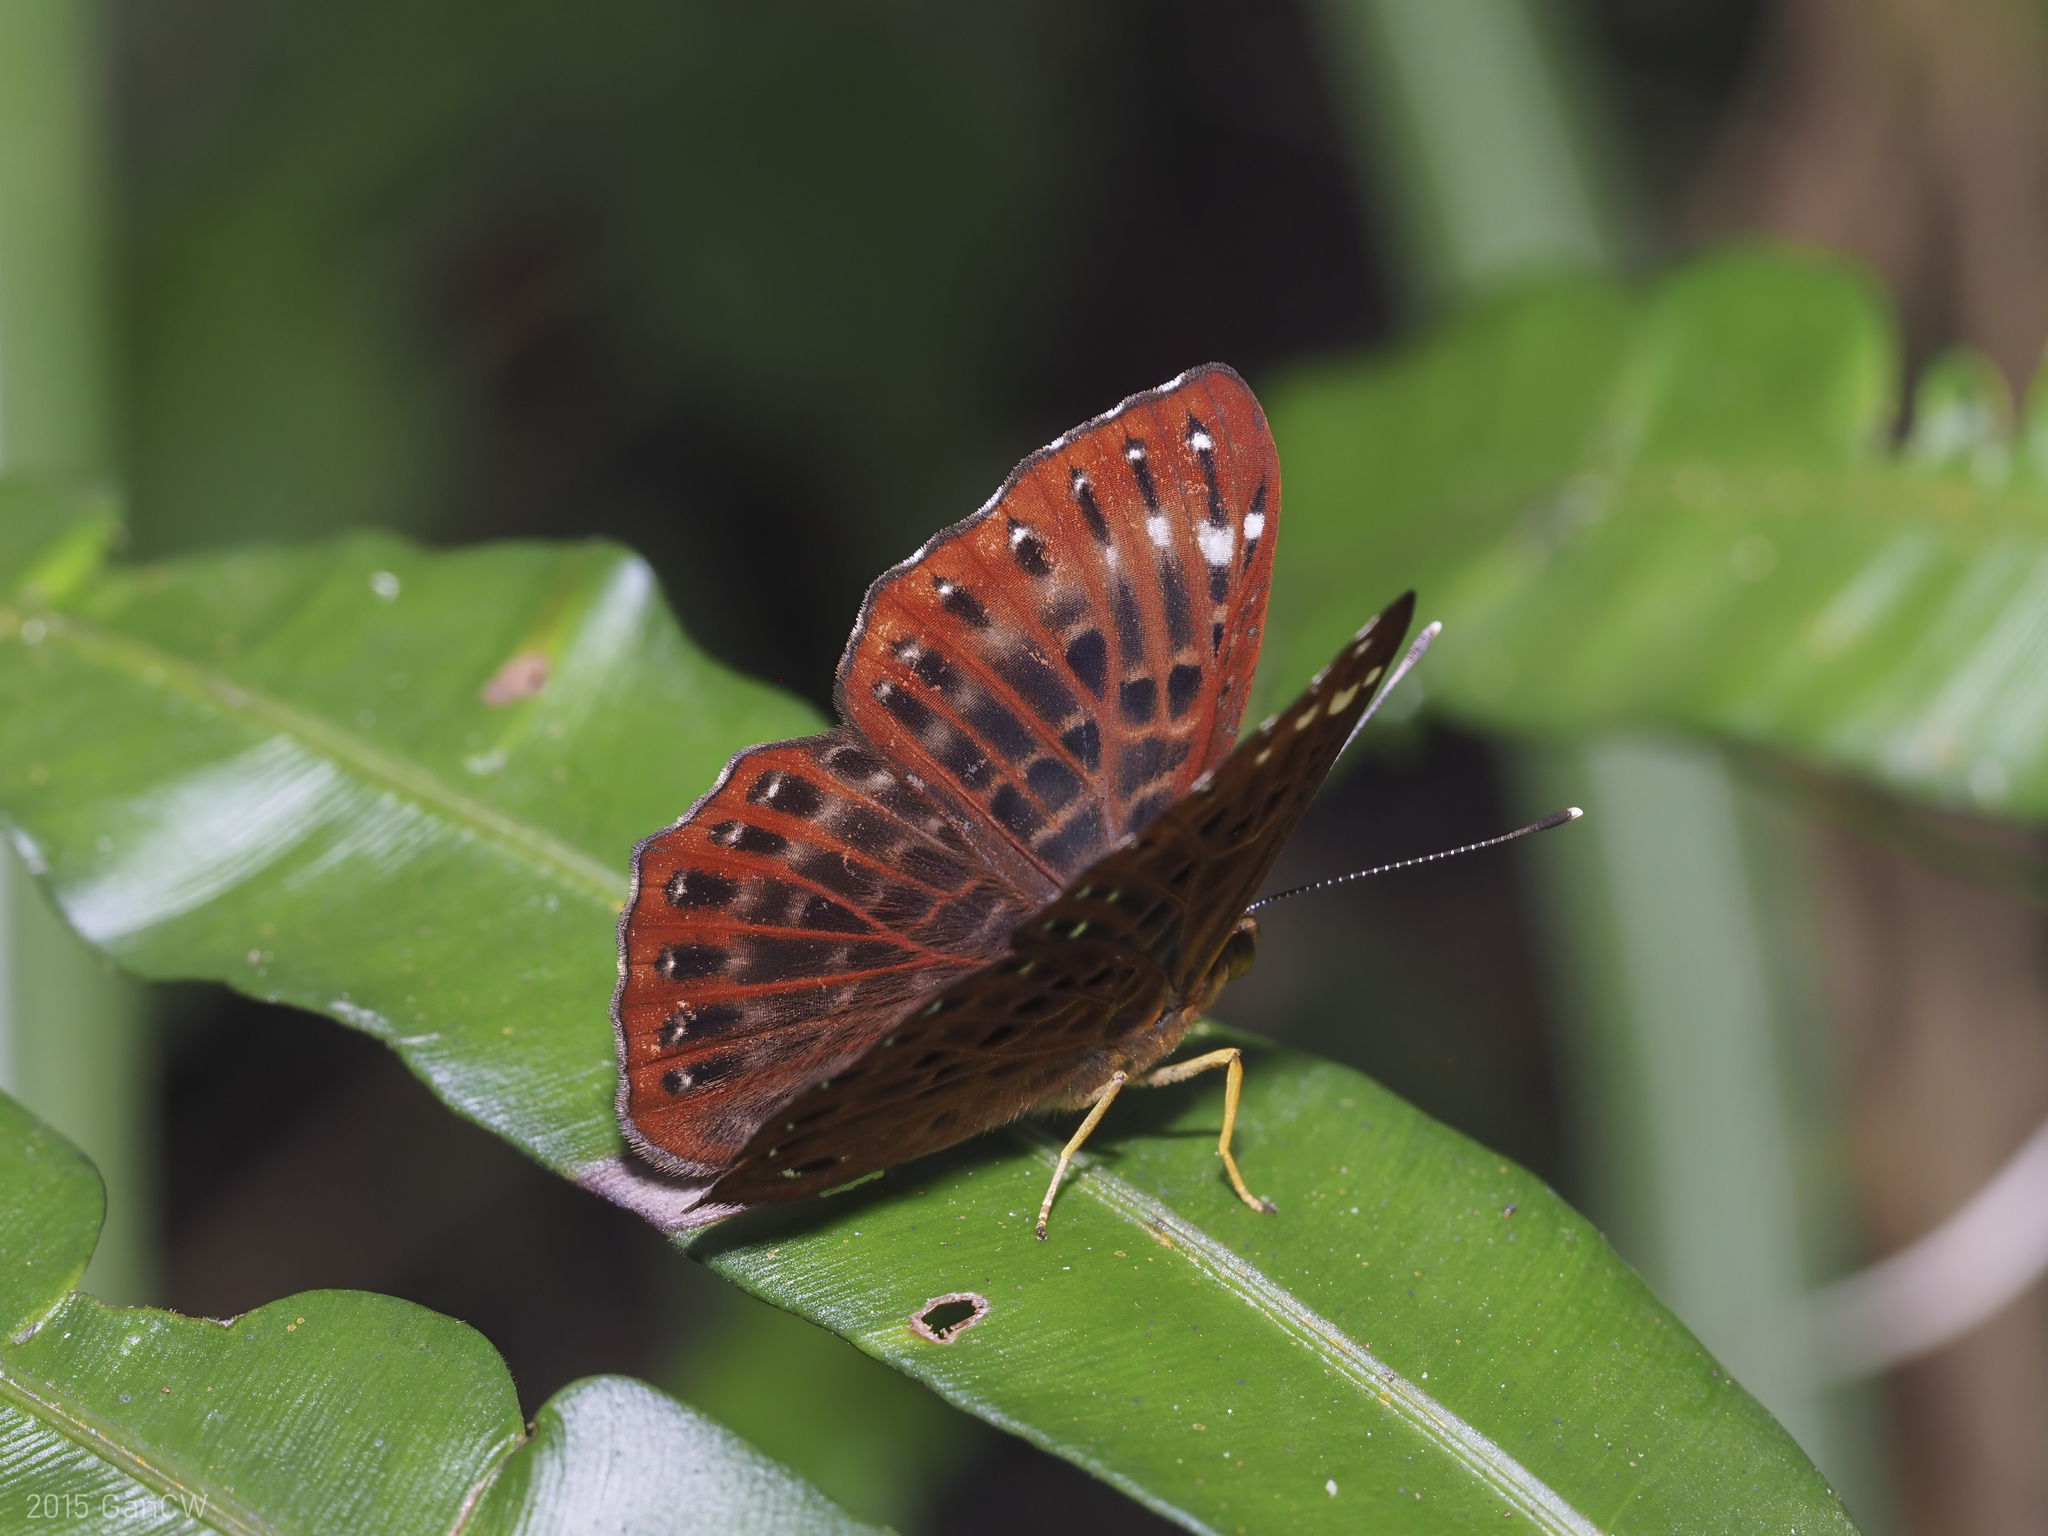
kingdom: Animalia
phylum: Arthropoda
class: Insecta
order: Lepidoptera
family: Riodinidae
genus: Zemeros
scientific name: Zemeros flegyas
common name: Punchinello
